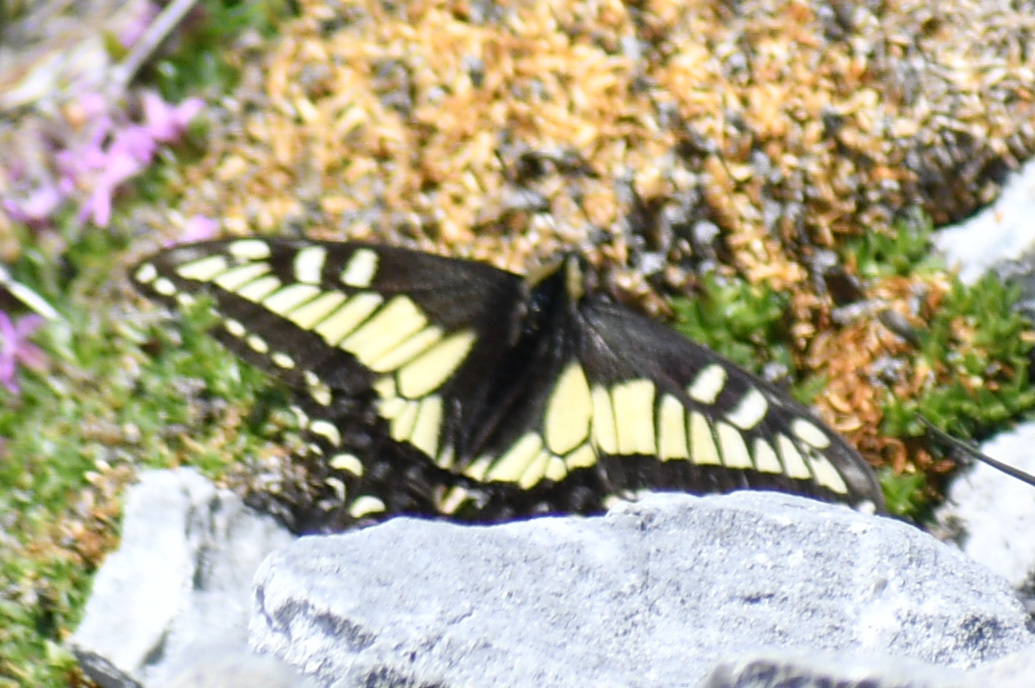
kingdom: Animalia
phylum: Arthropoda
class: Insecta
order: Lepidoptera
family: Papilionidae
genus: Papilio
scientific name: Papilio zelicaon
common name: Anise swallowtail
